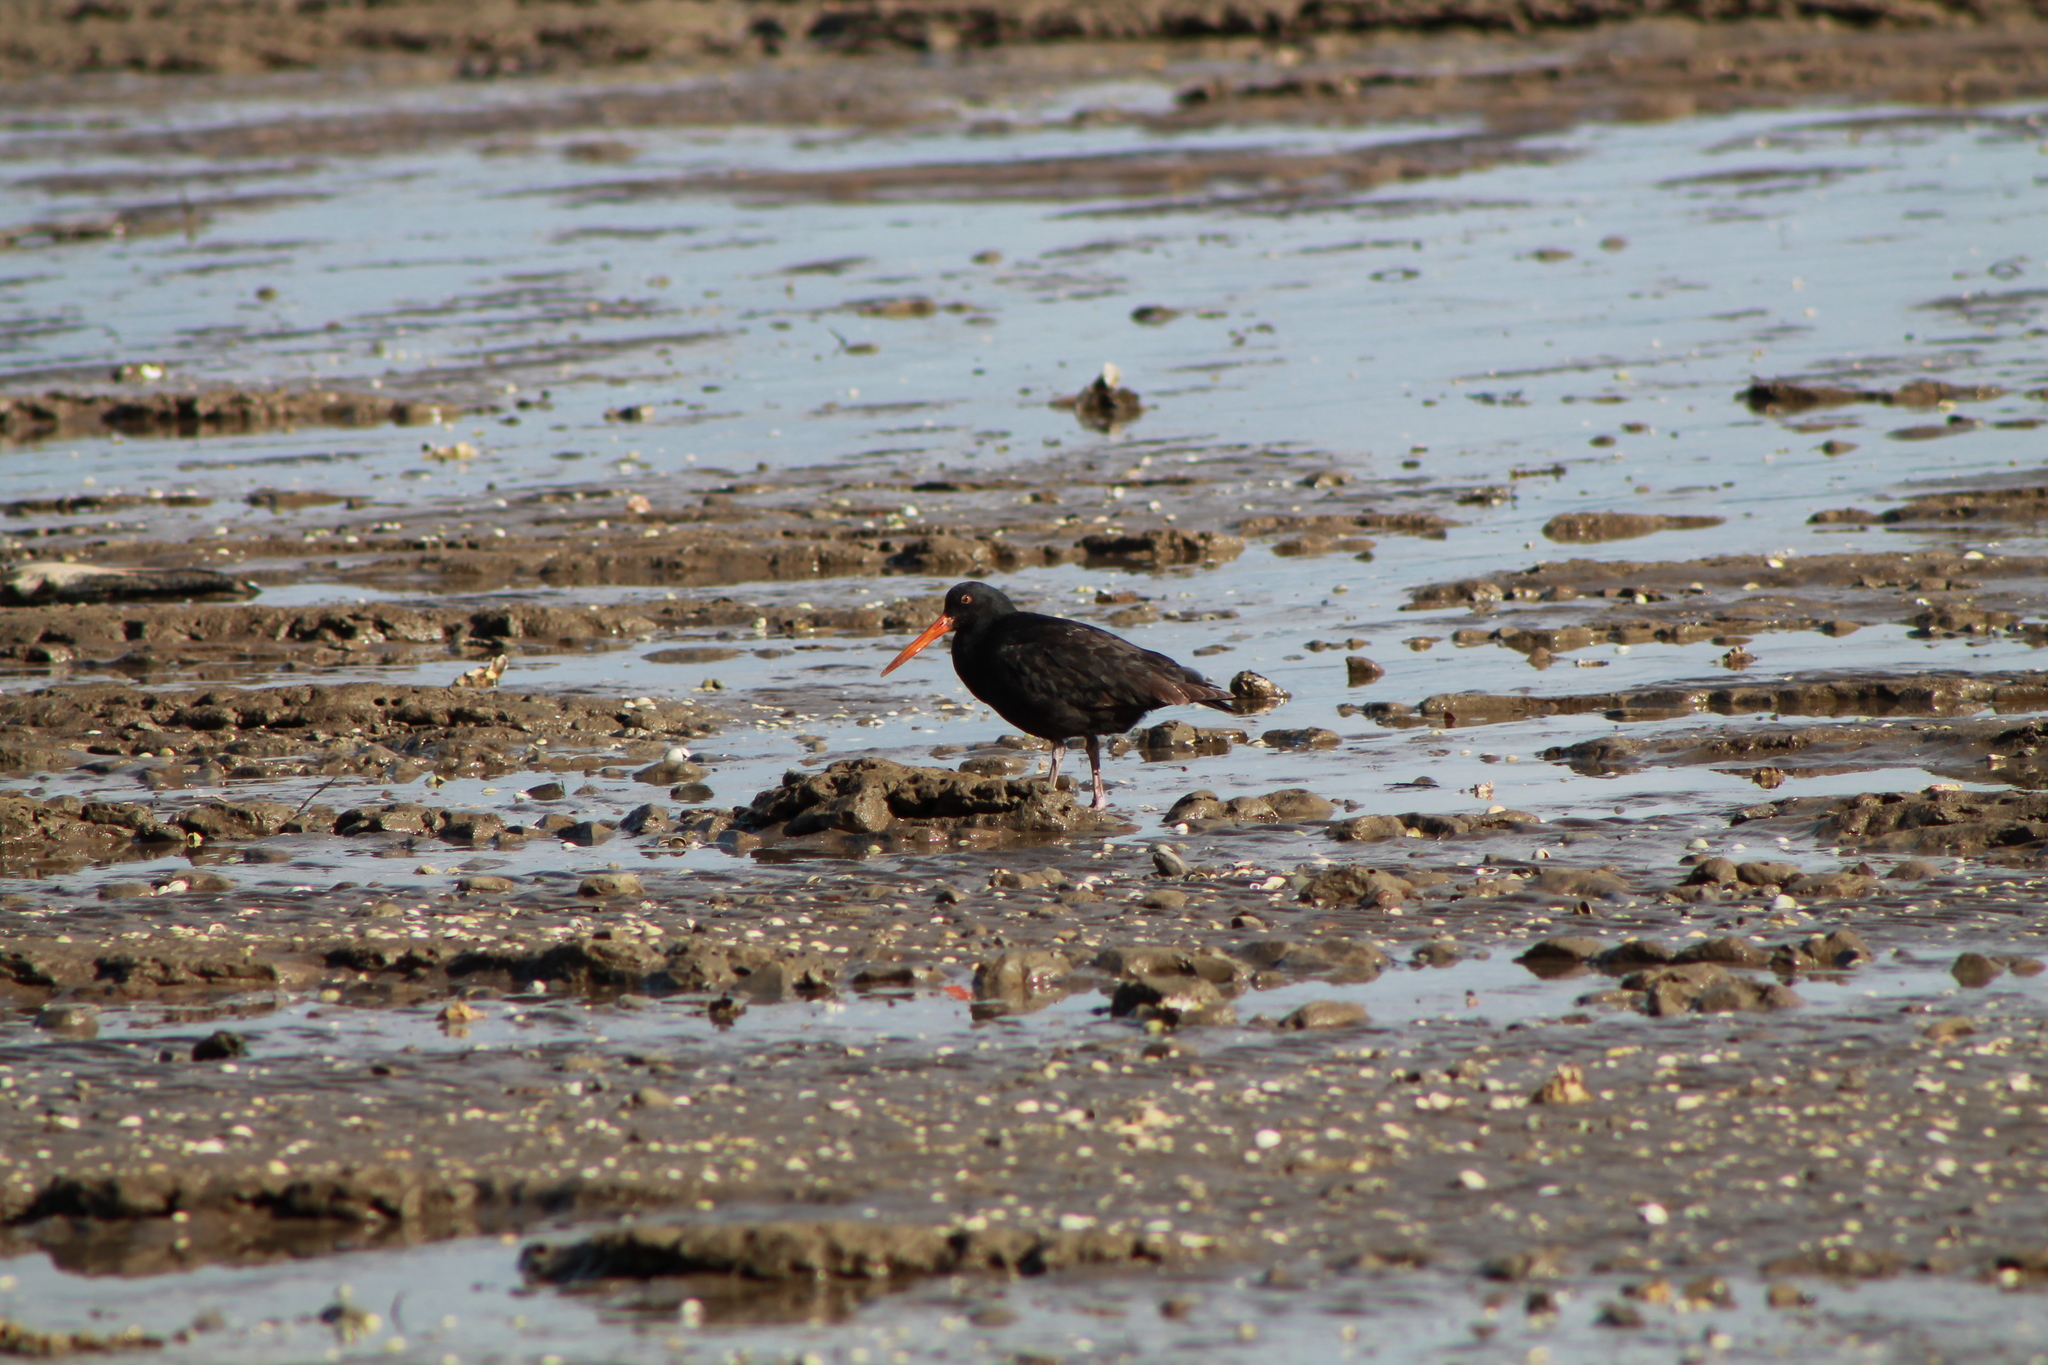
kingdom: Animalia
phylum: Chordata
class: Aves
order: Charadriiformes
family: Haematopodidae
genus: Haematopus
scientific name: Haematopus unicolor
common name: Variable oystercatcher
